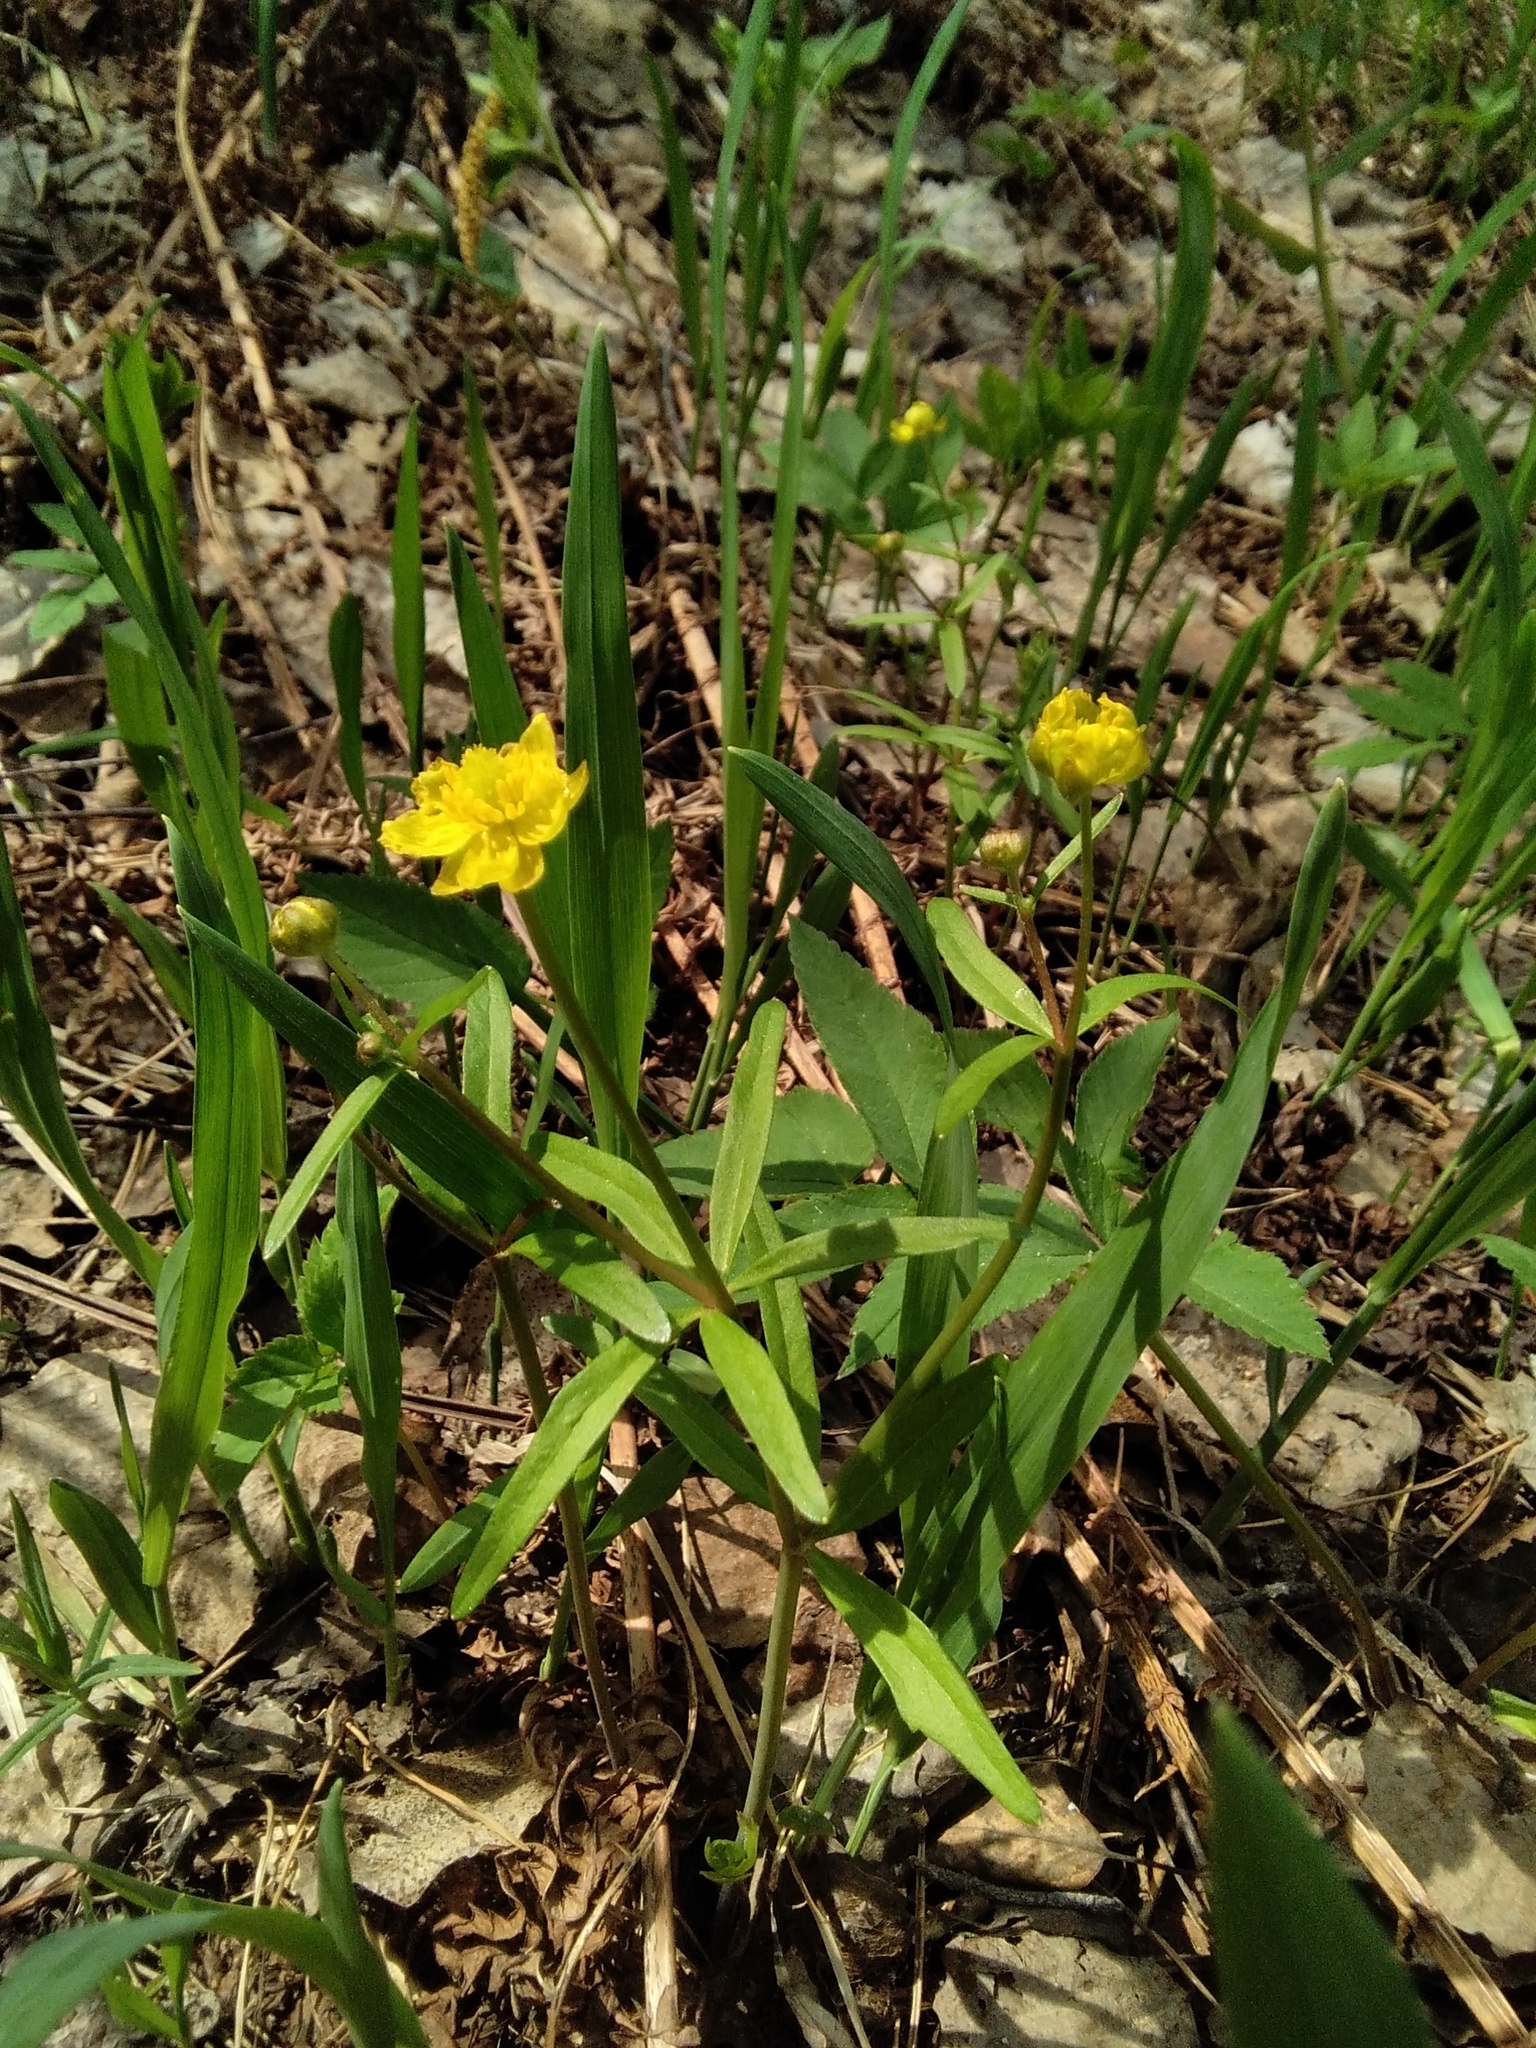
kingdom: Plantae
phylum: Tracheophyta
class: Magnoliopsida
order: Ranunculales
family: Ranunculaceae
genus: Ranunculus
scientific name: Ranunculus monophyllus
